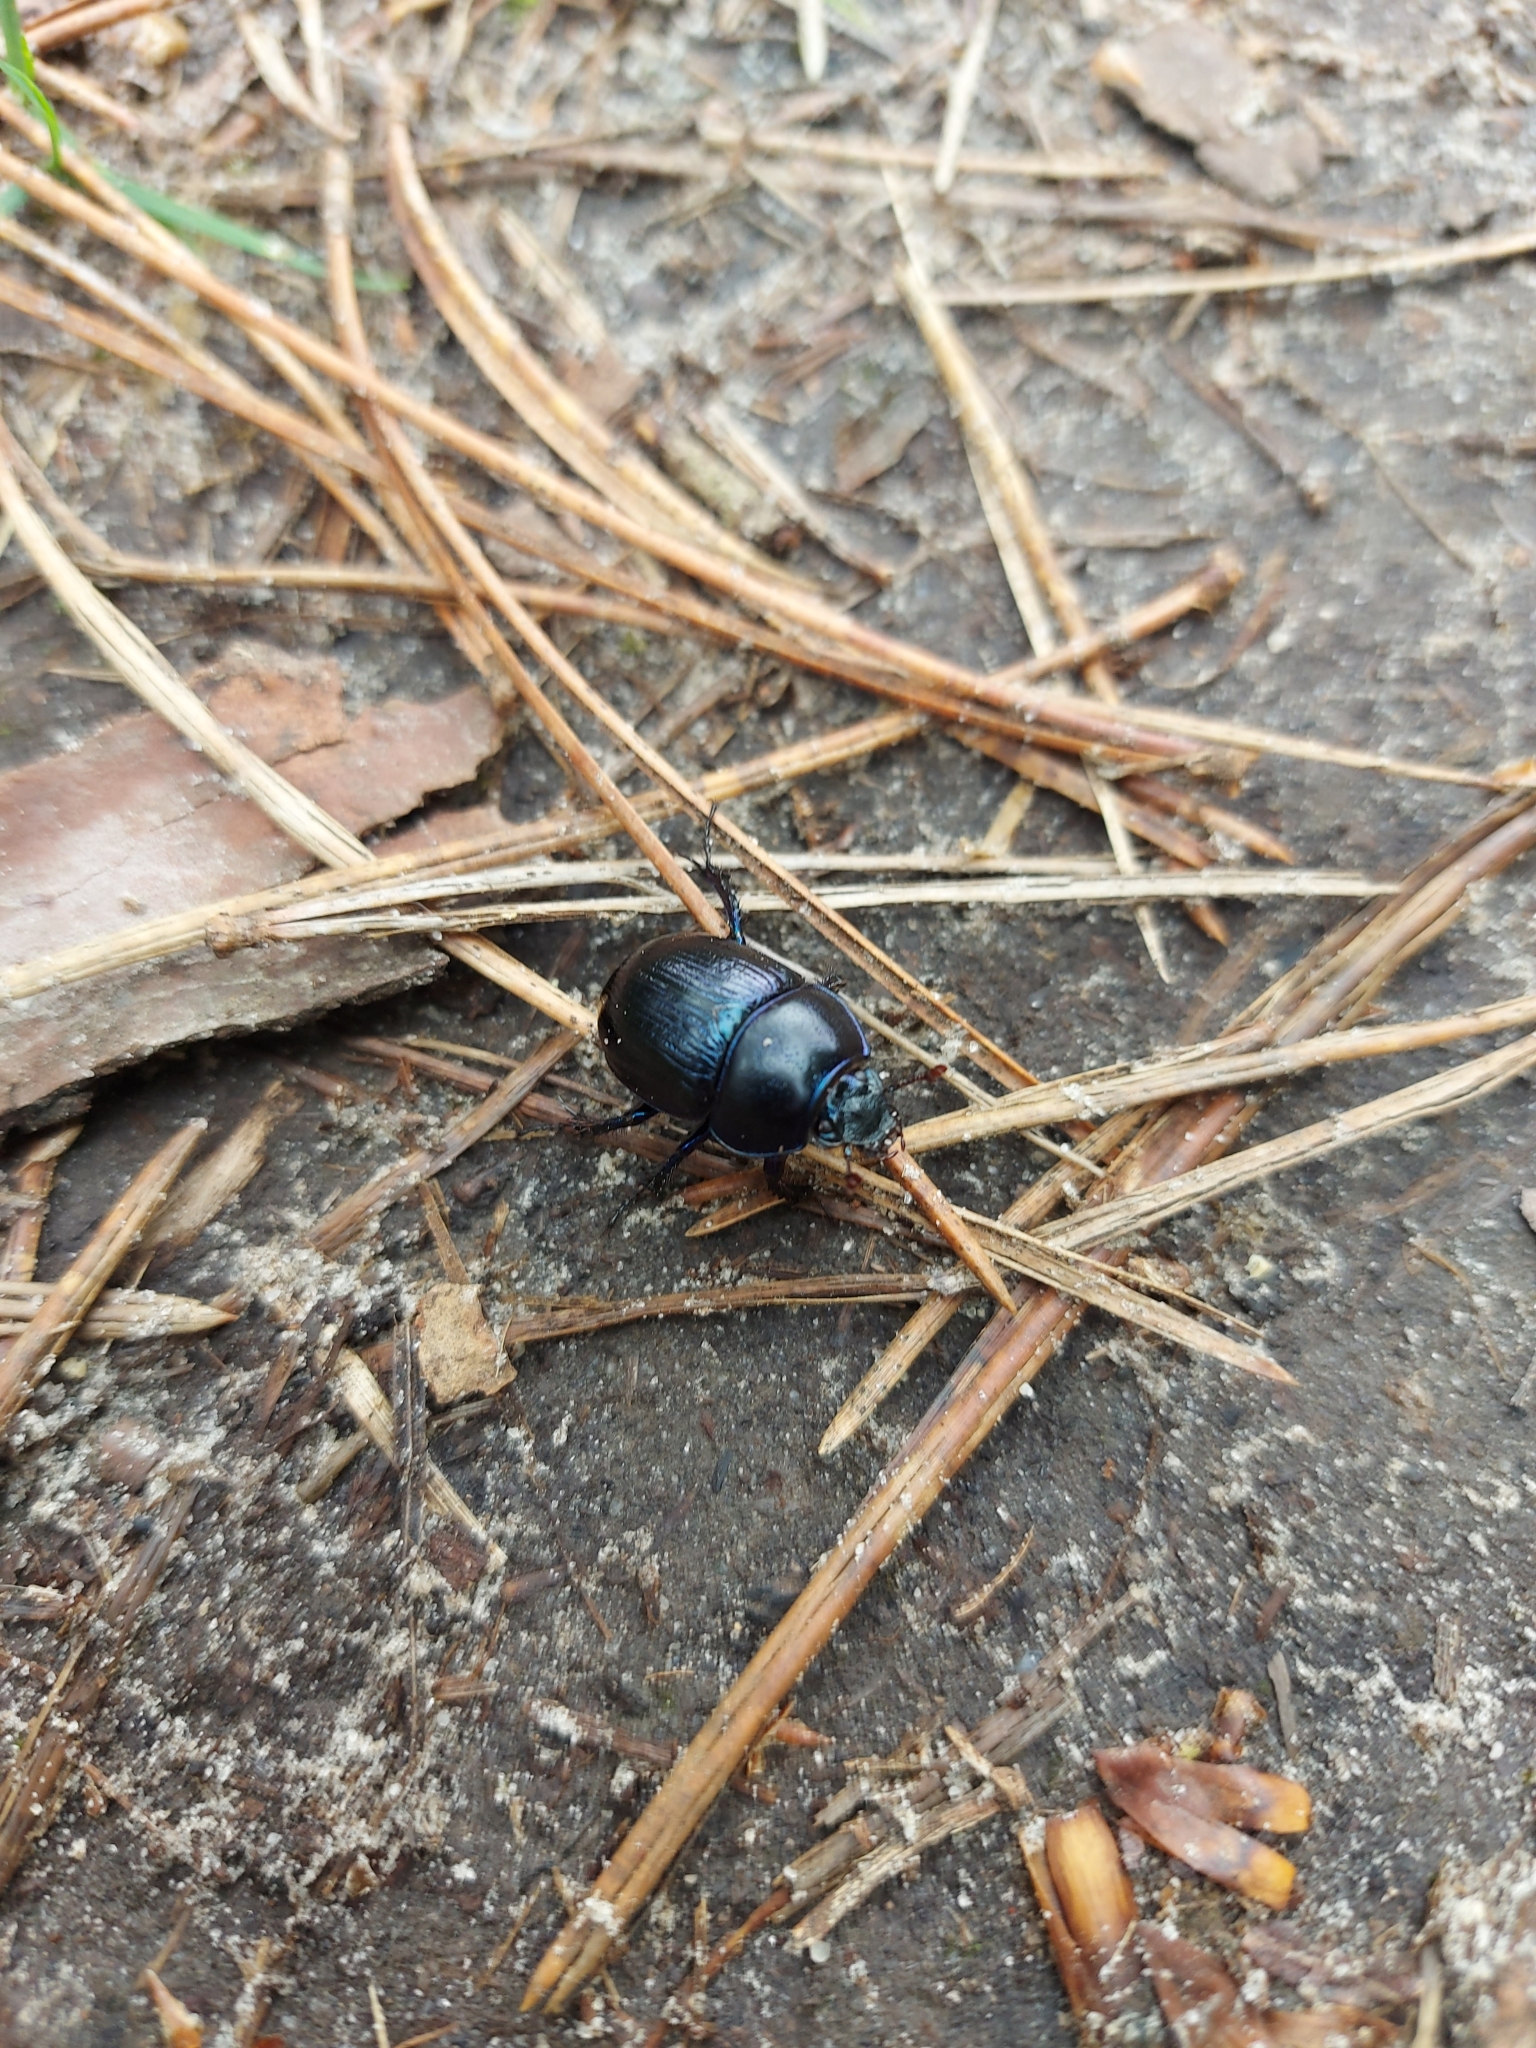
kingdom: Animalia
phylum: Arthropoda
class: Insecta
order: Coleoptera
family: Geotrupidae
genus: Anoplotrupes
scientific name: Anoplotrupes stercorosus
